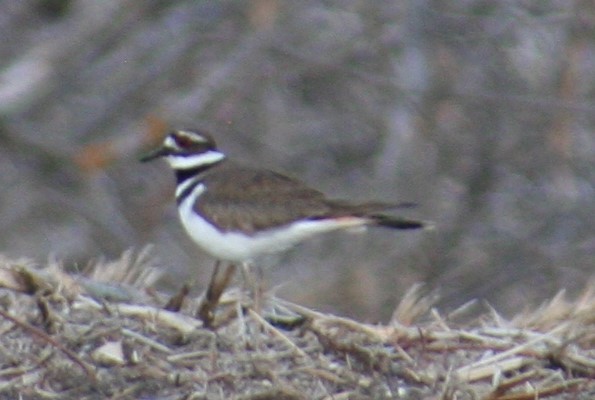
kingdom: Animalia
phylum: Chordata
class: Aves
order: Charadriiformes
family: Charadriidae
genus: Charadrius
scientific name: Charadrius vociferus
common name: Killdeer
